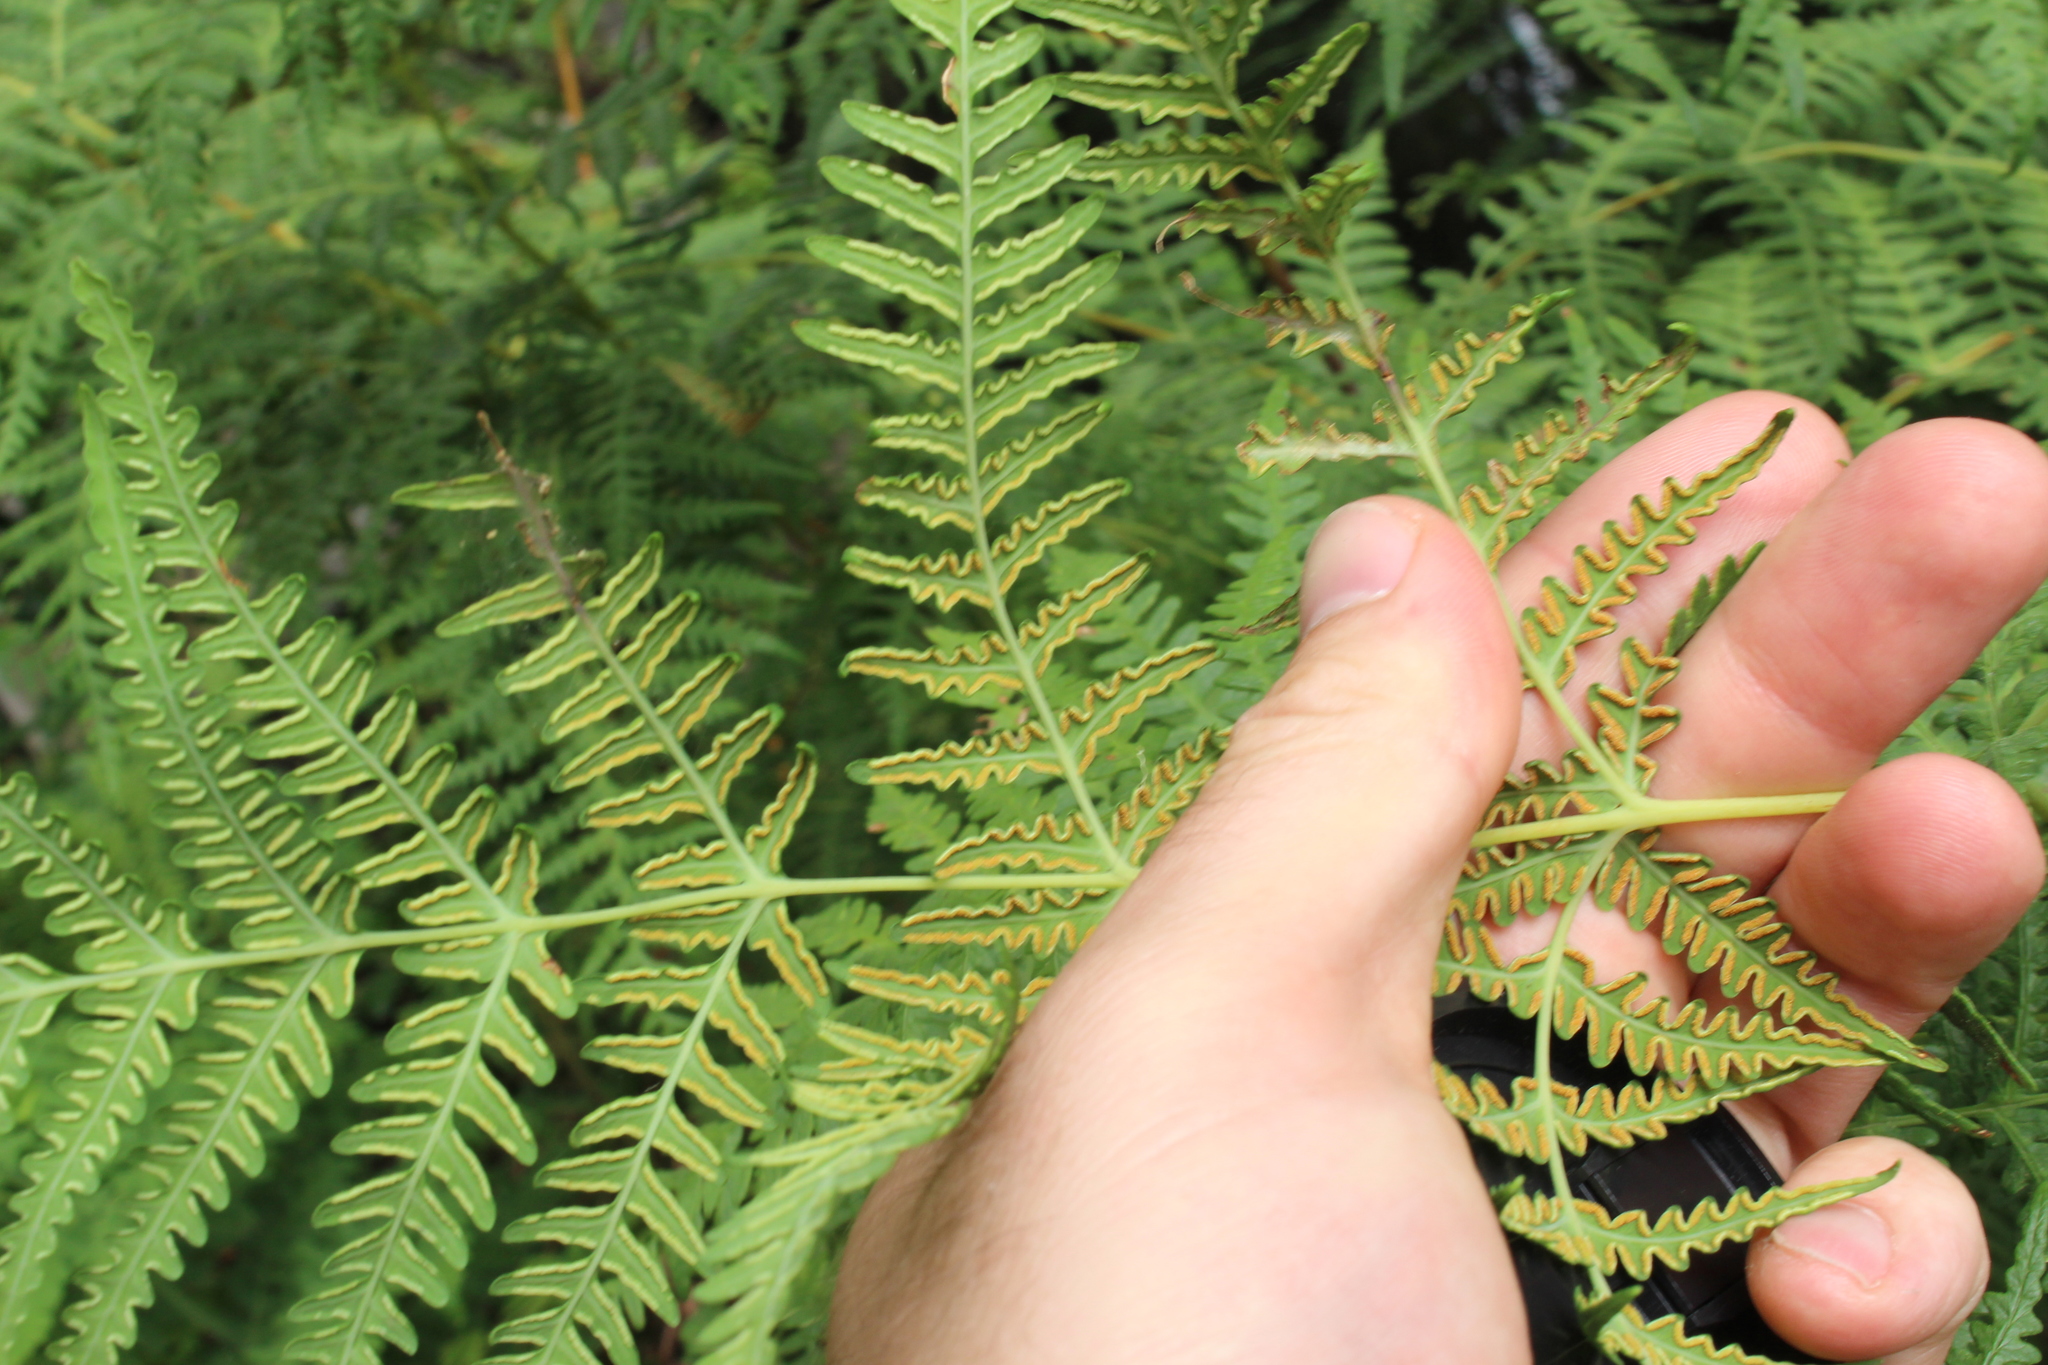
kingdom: Plantae
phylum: Tracheophyta
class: Polypodiopsida
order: Polypodiales
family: Dennstaedtiaceae
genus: Histiopteris
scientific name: Histiopteris incisa
